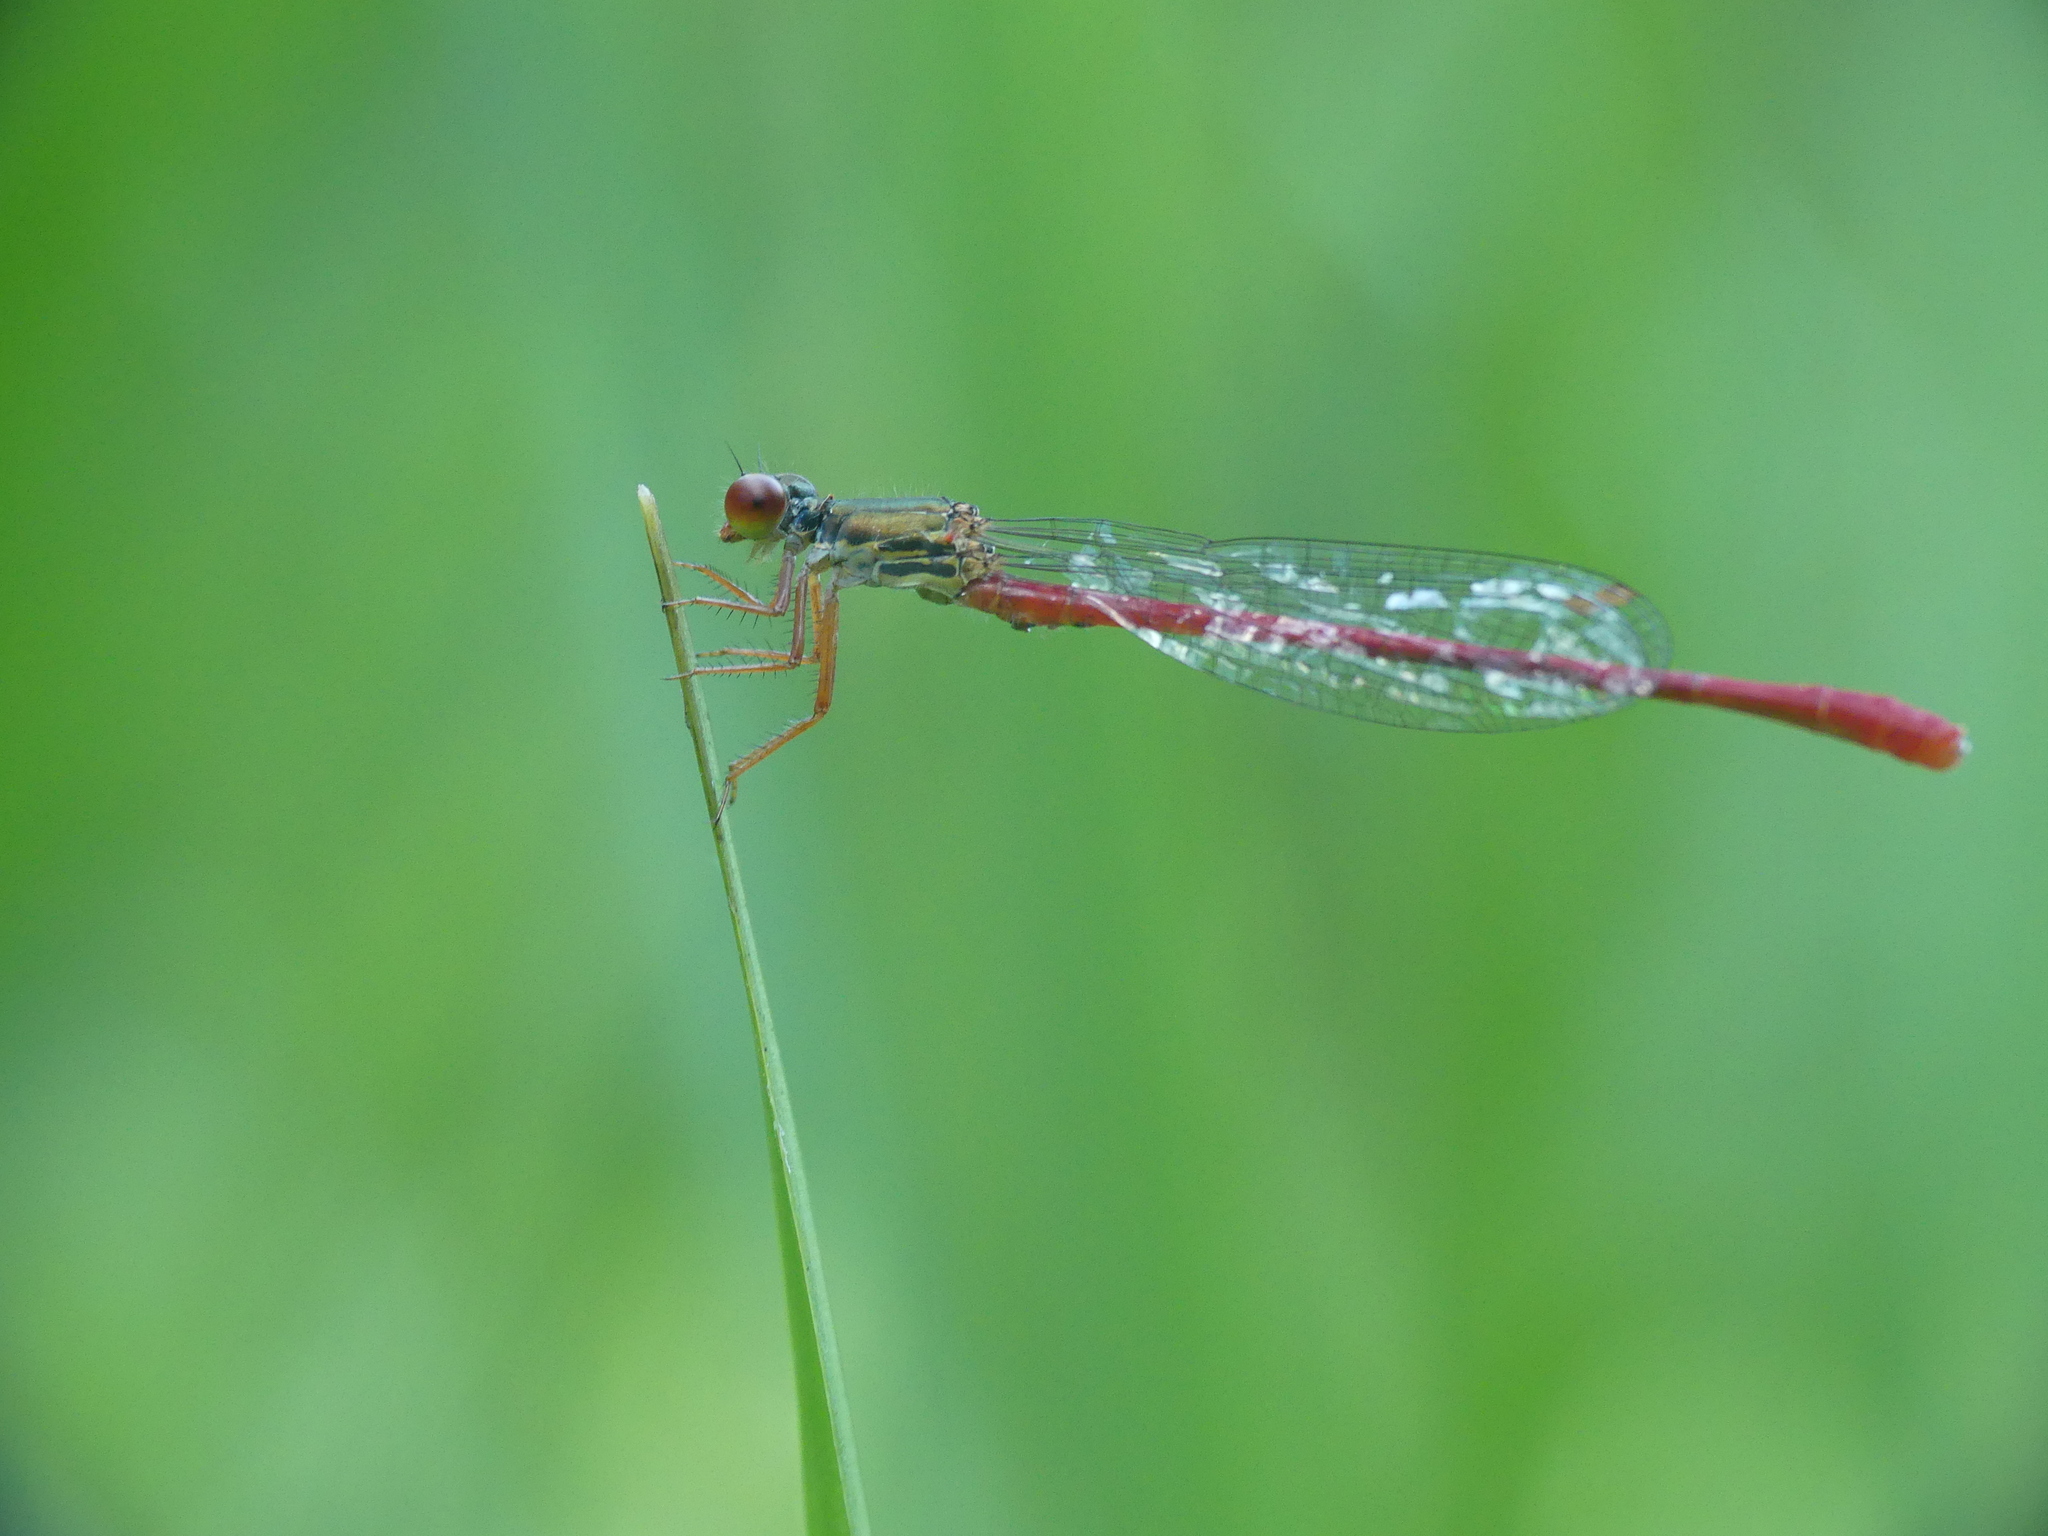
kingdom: Animalia
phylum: Arthropoda
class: Insecta
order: Odonata
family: Coenagrionidae
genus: Ceriagrion
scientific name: Ceriagrion tenellum
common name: Small red damselfly
